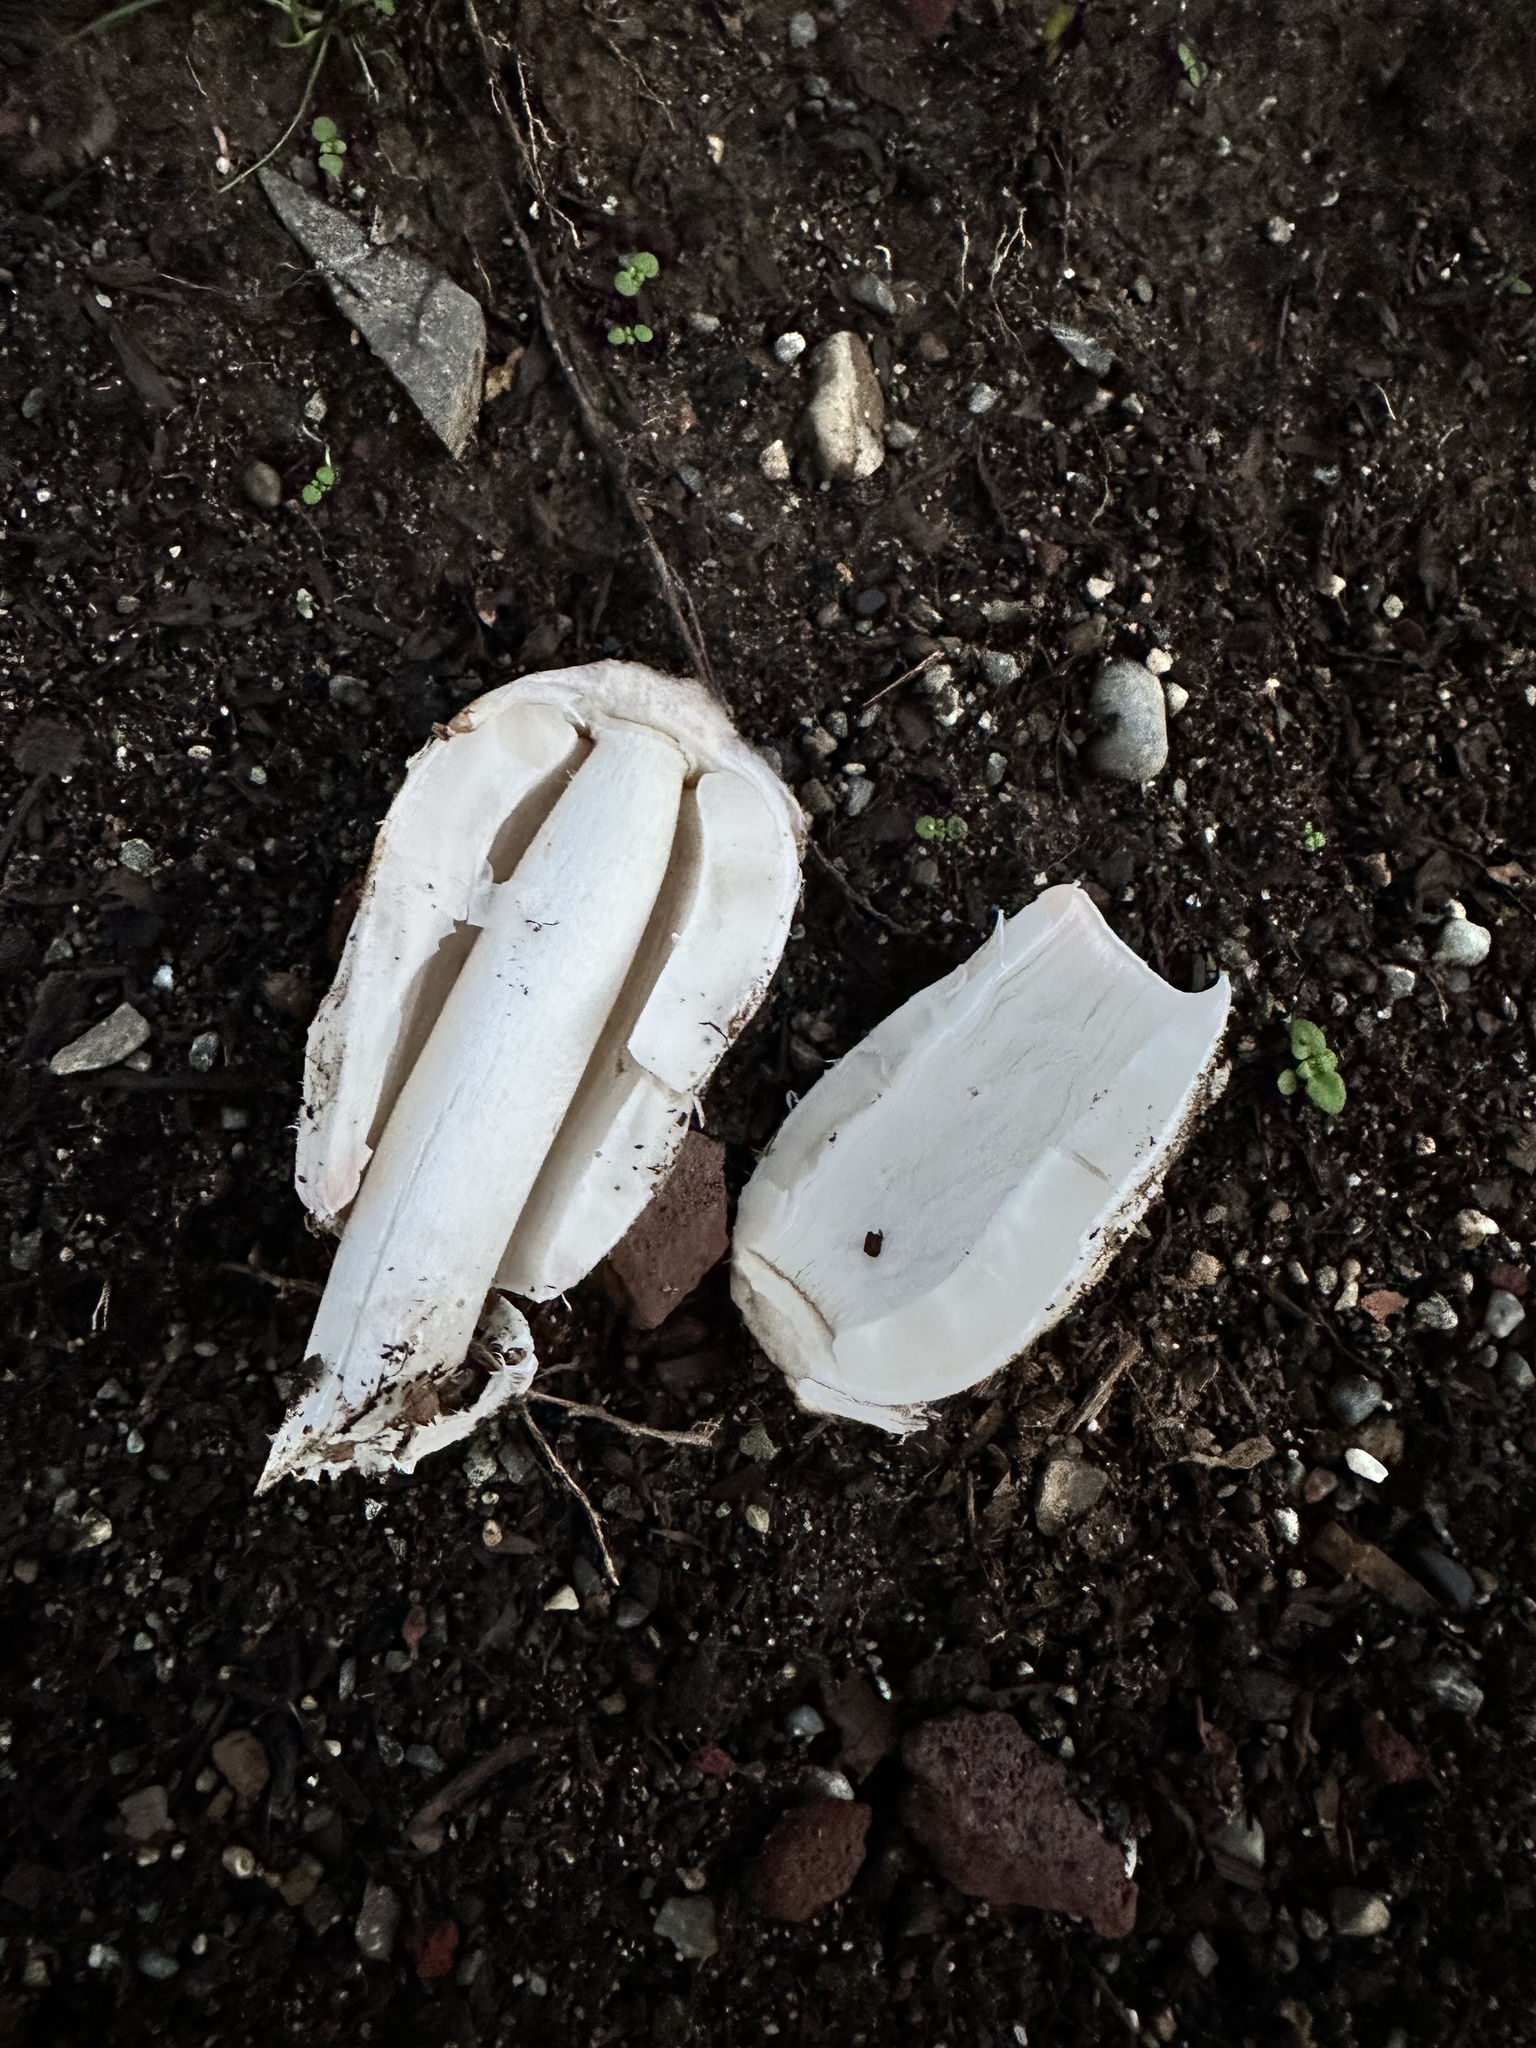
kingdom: Fungi
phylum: Basidiomycota
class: Agaricomycetes
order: Agaricales
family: Agaricaceae
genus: Coprinus
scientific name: Coprinus comatus
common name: Lawyer's wig
